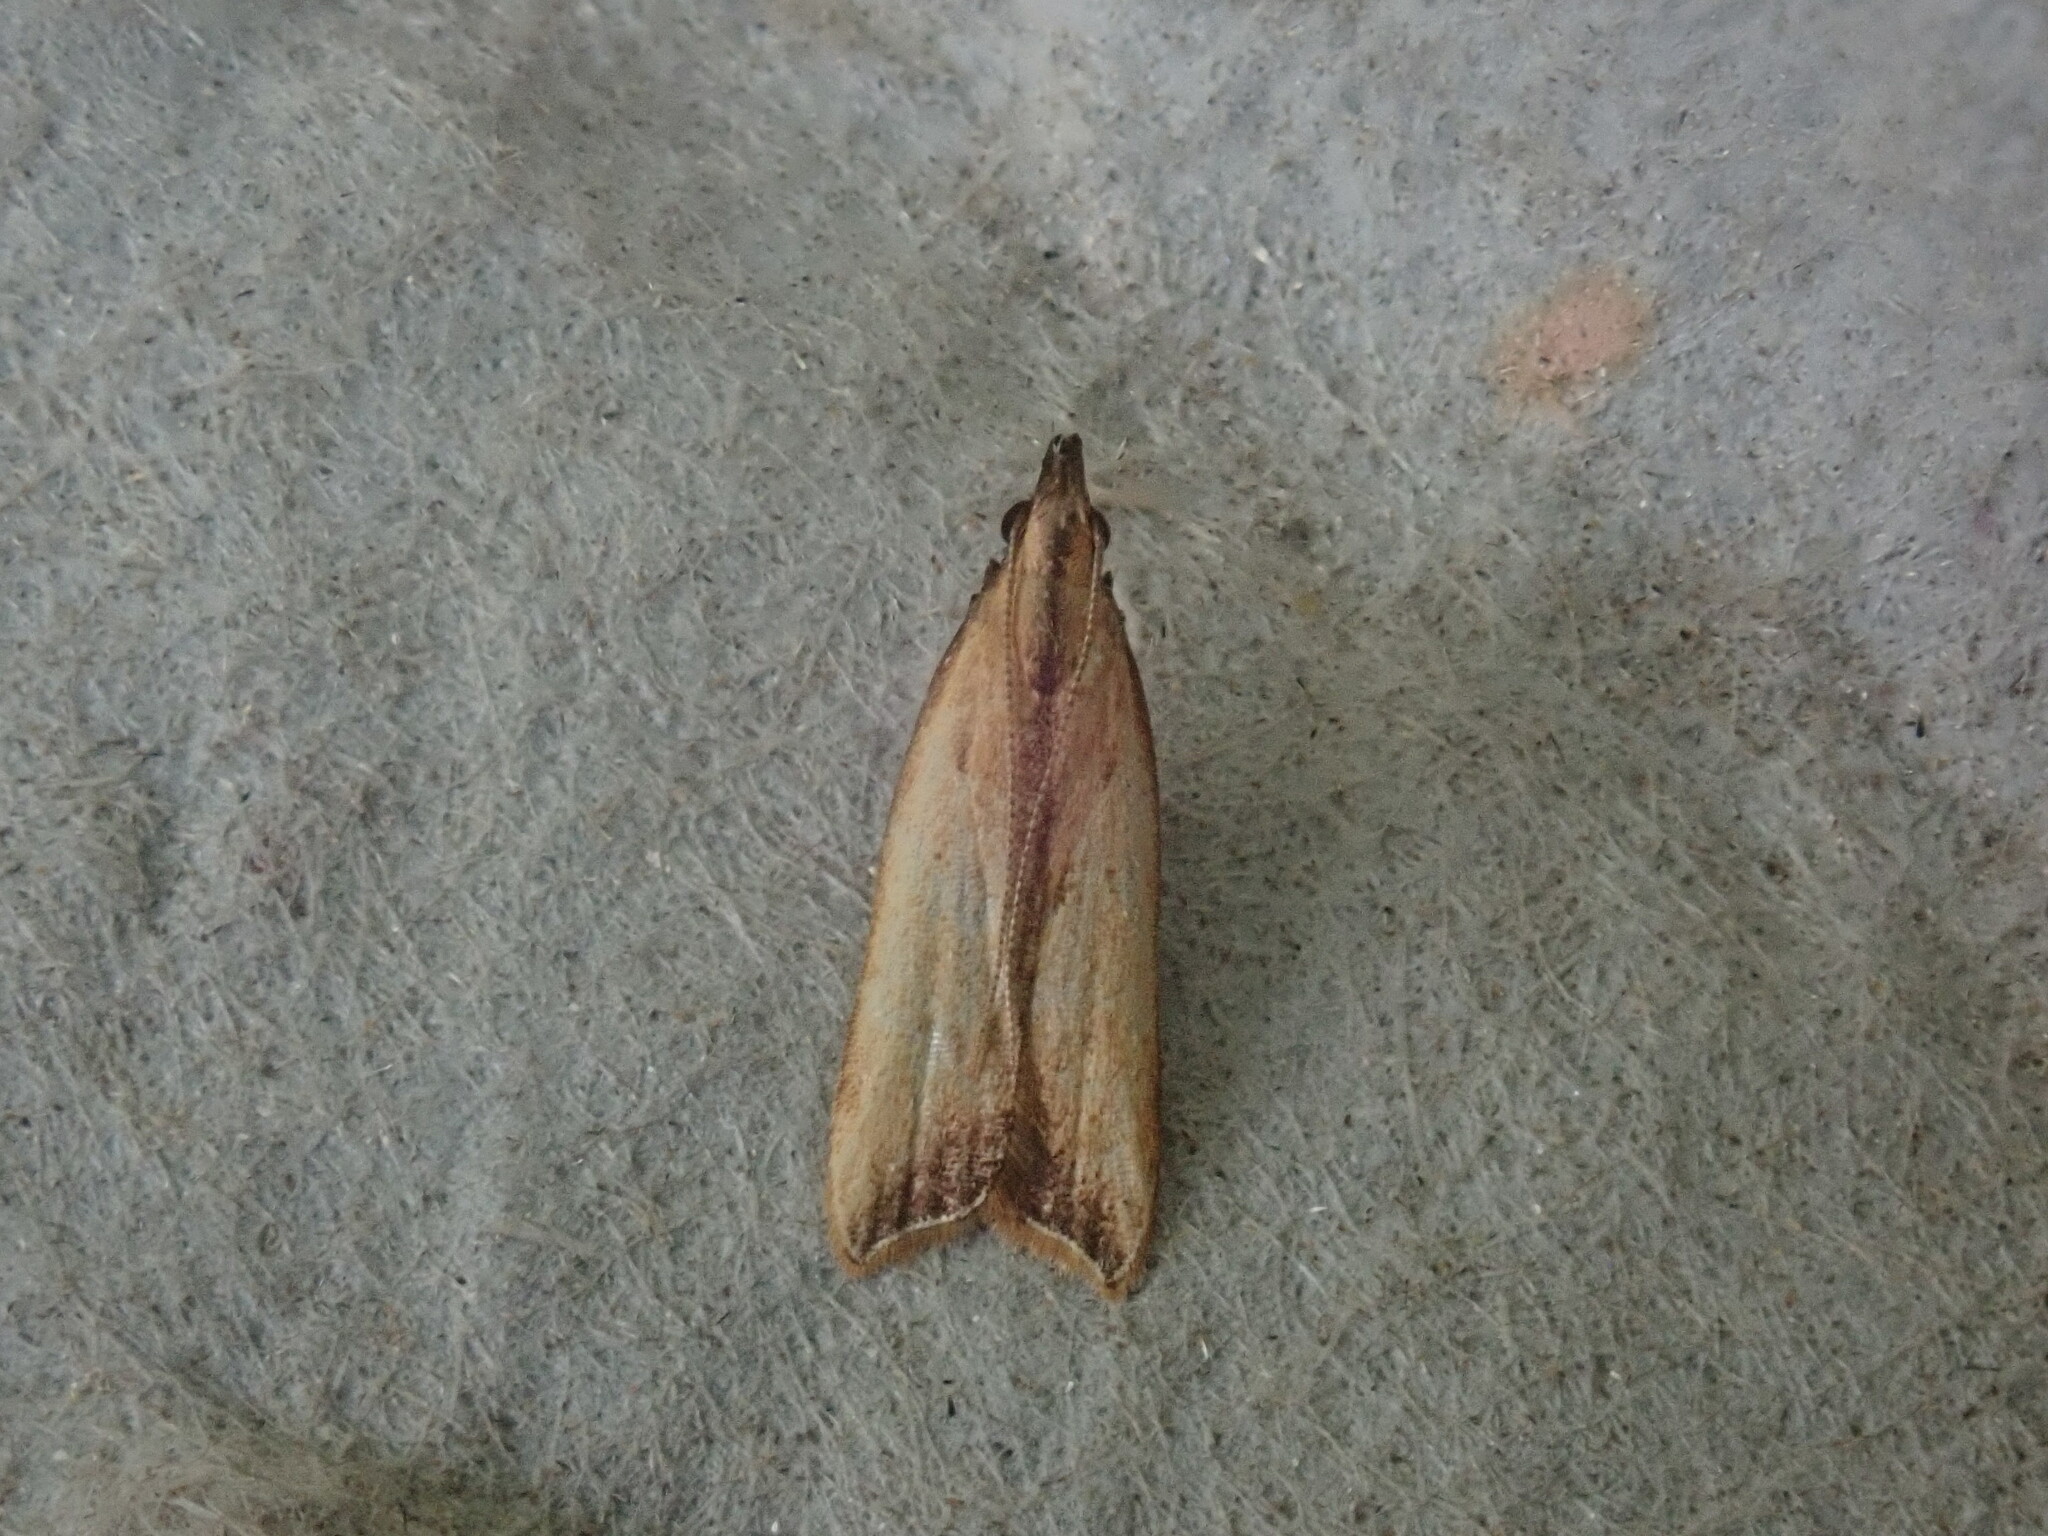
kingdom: Animalia
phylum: Arthropoda
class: Insecta
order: Lepidoptera
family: Gelechiidae
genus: Dichomeris
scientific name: Dichomeris heriguronis
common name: Black-edged dichomeris moth
